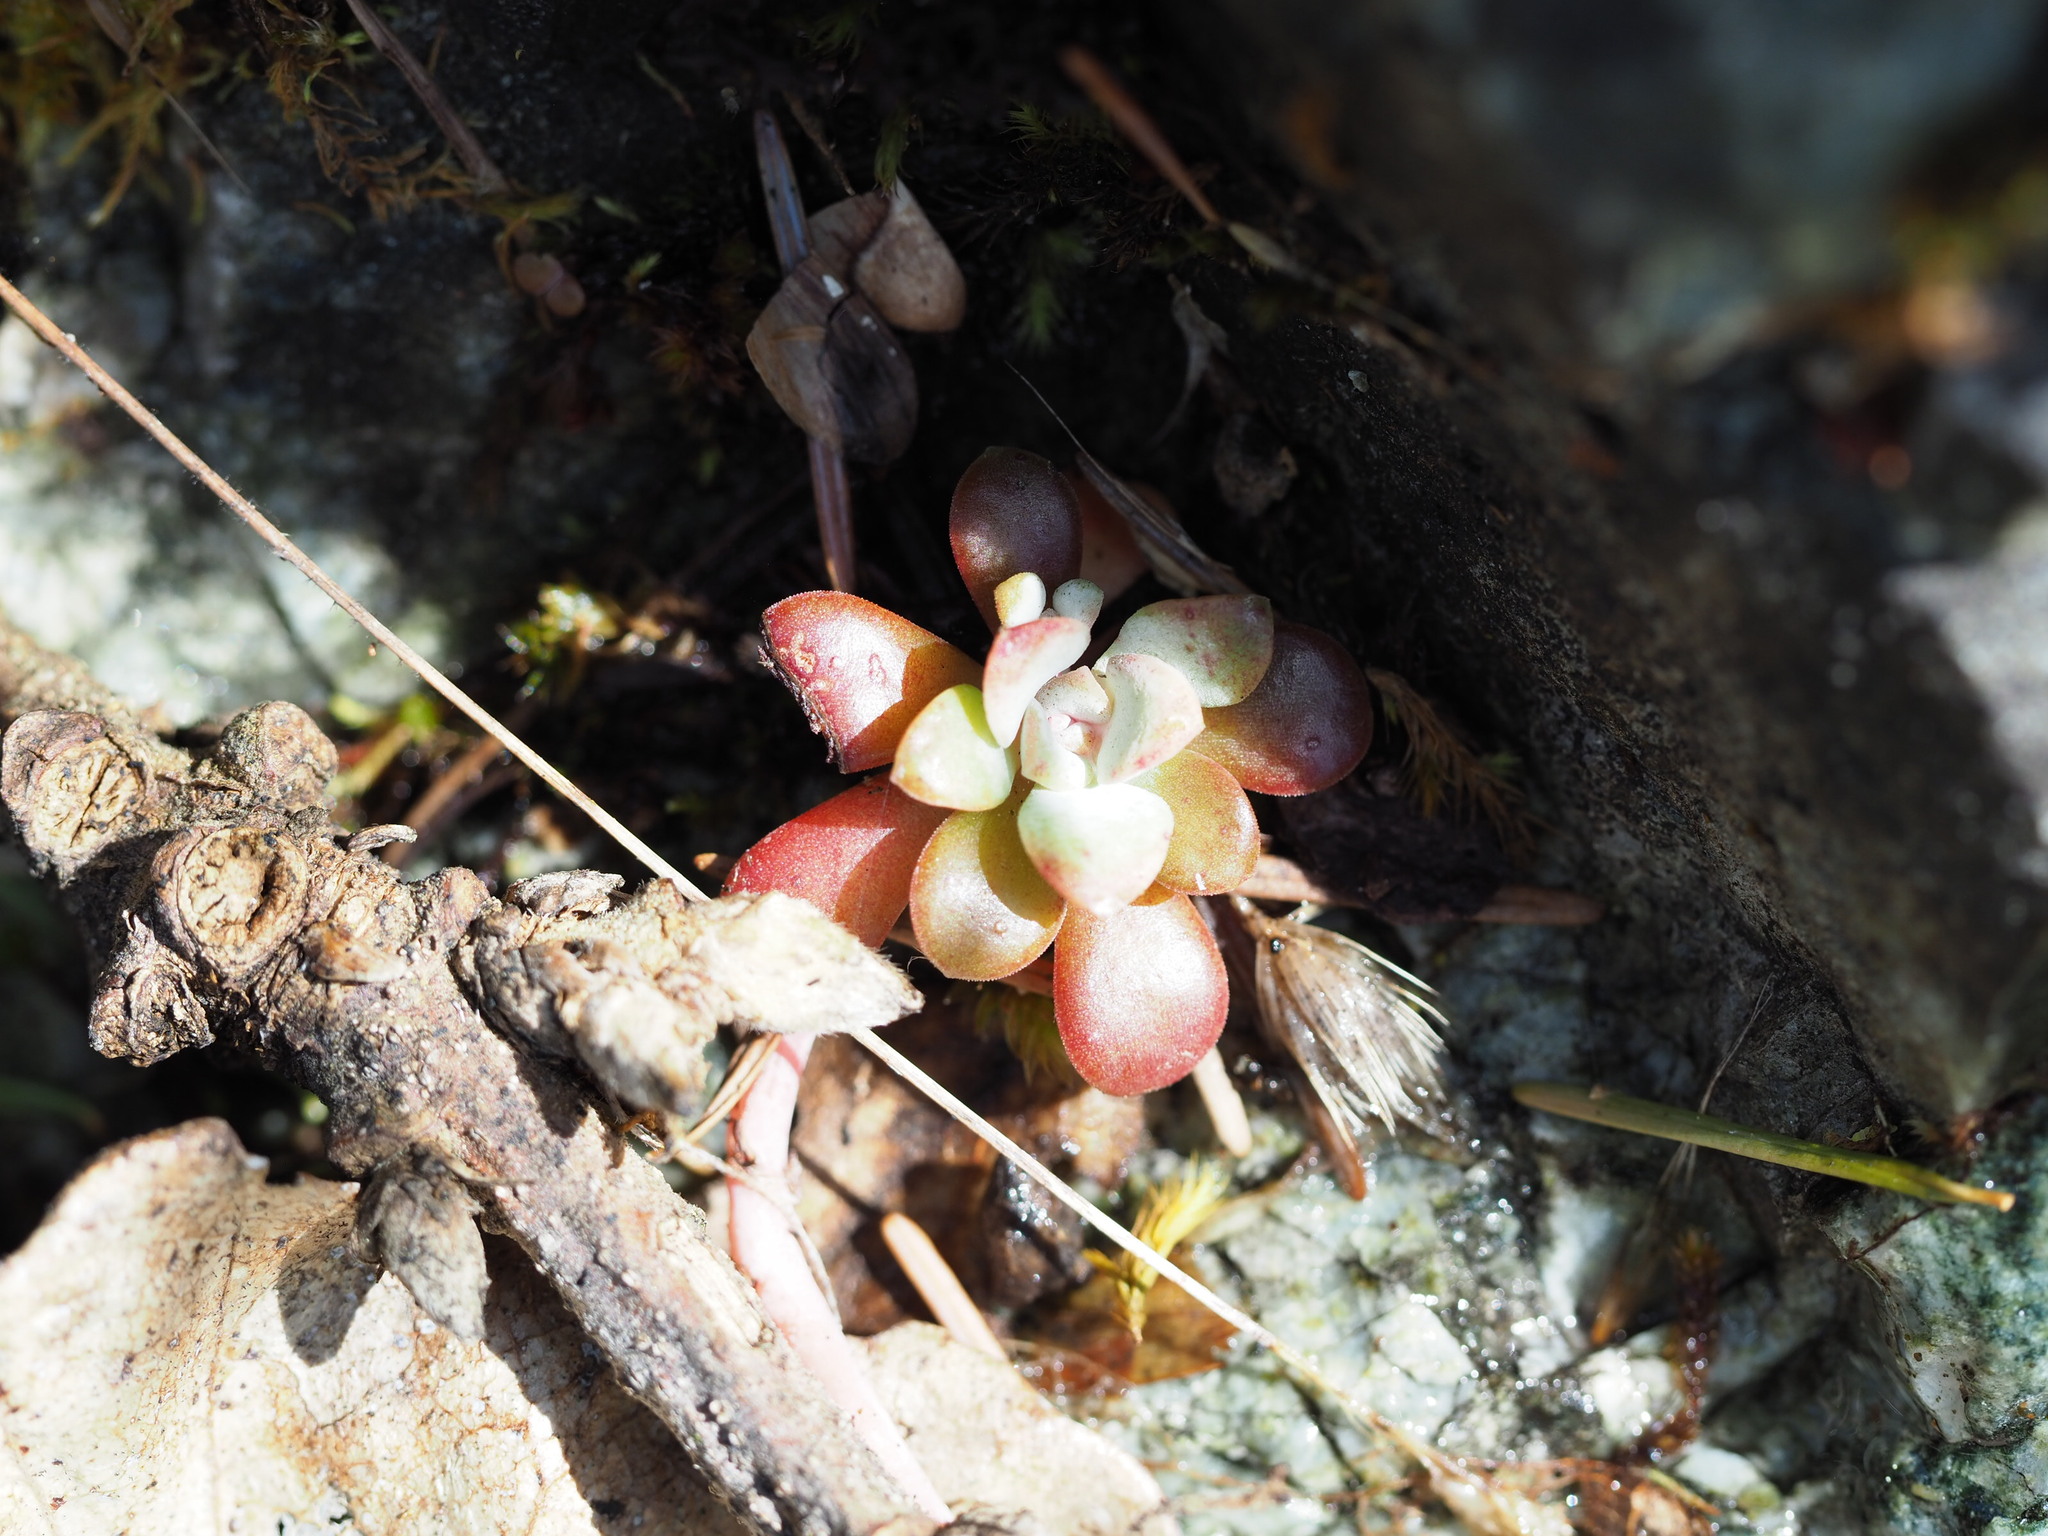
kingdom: Plantae
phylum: Tracheophyta
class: Magnoliopsida
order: Saxifragales
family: Crassulaceae
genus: Sedum
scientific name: Sedum spathulifolium
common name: Colorado stonecrop
